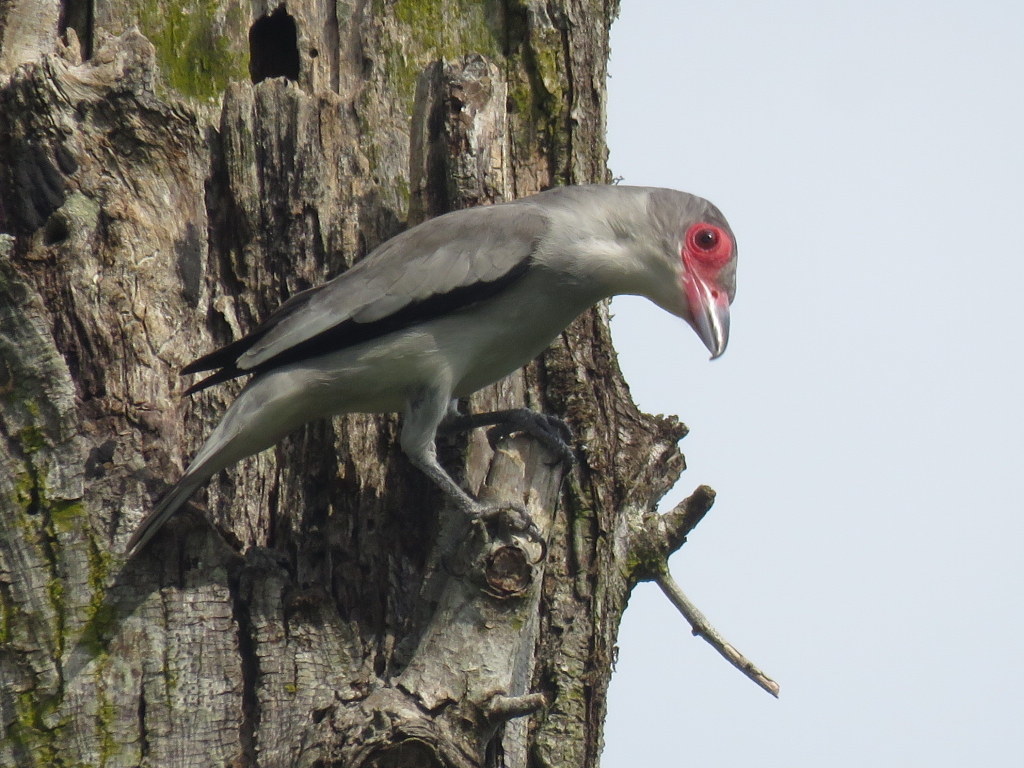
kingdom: Animalia
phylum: Chordata
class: Aves
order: Passeriformes
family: Cotingidae
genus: Tityra
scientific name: Tityra semifasciata
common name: Masked tityra
